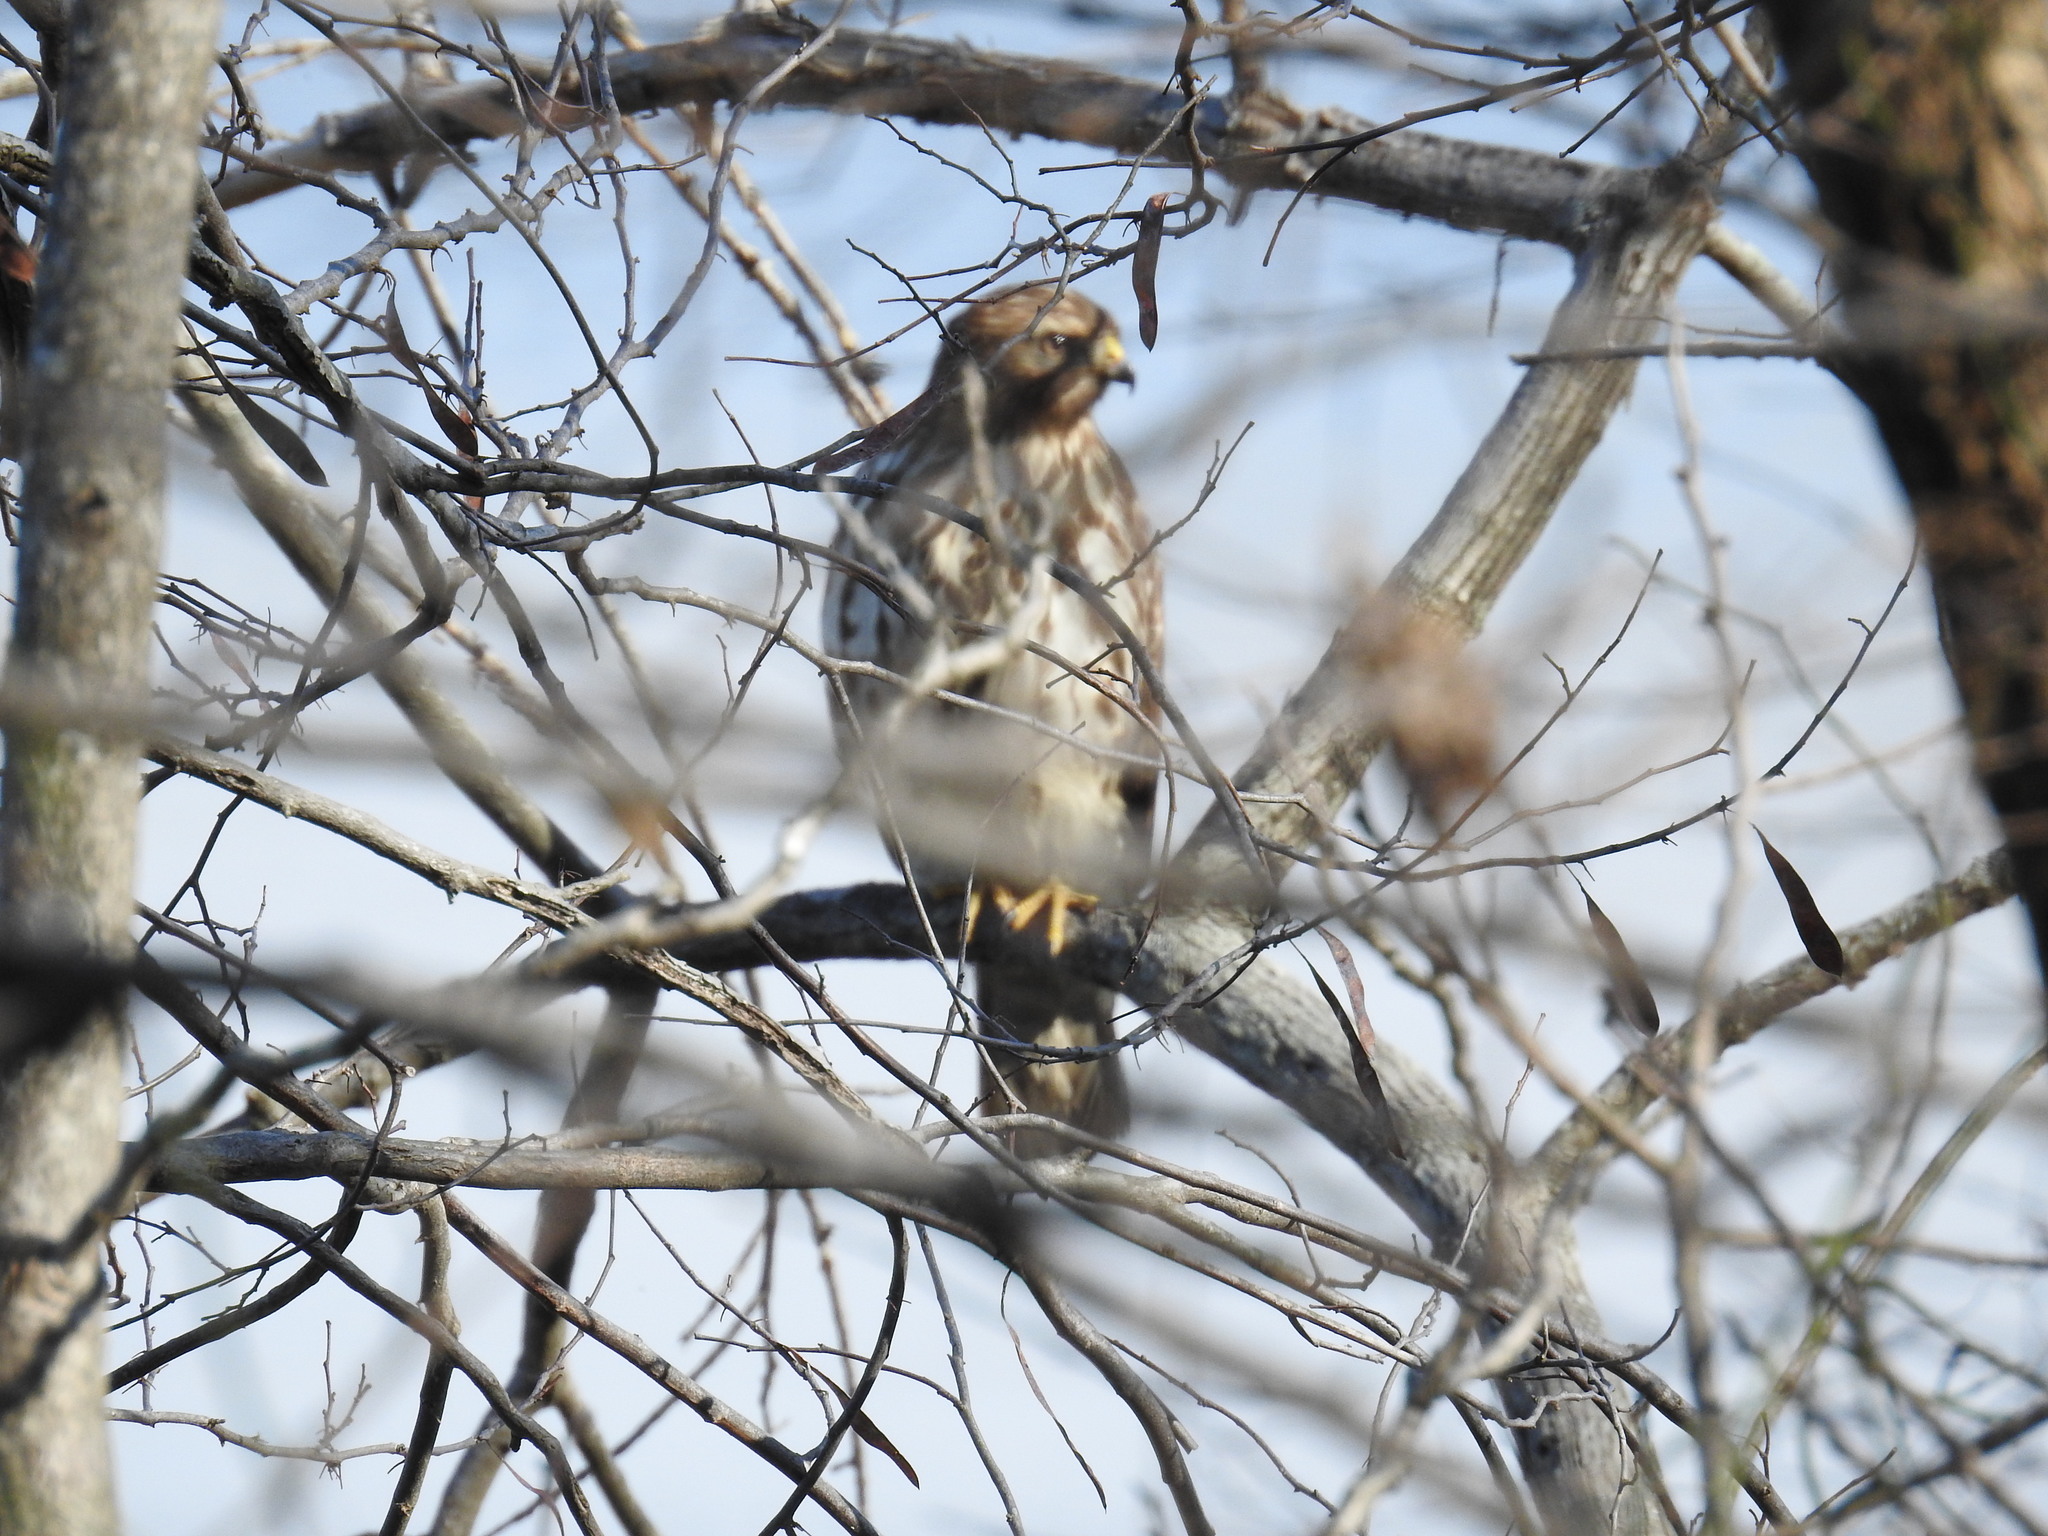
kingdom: Animalia
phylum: Chordata
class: Aves
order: Accipitriformes
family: Accipitridae
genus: Buteo
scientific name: Buteo lineatus
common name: Red-shouldered hawk
